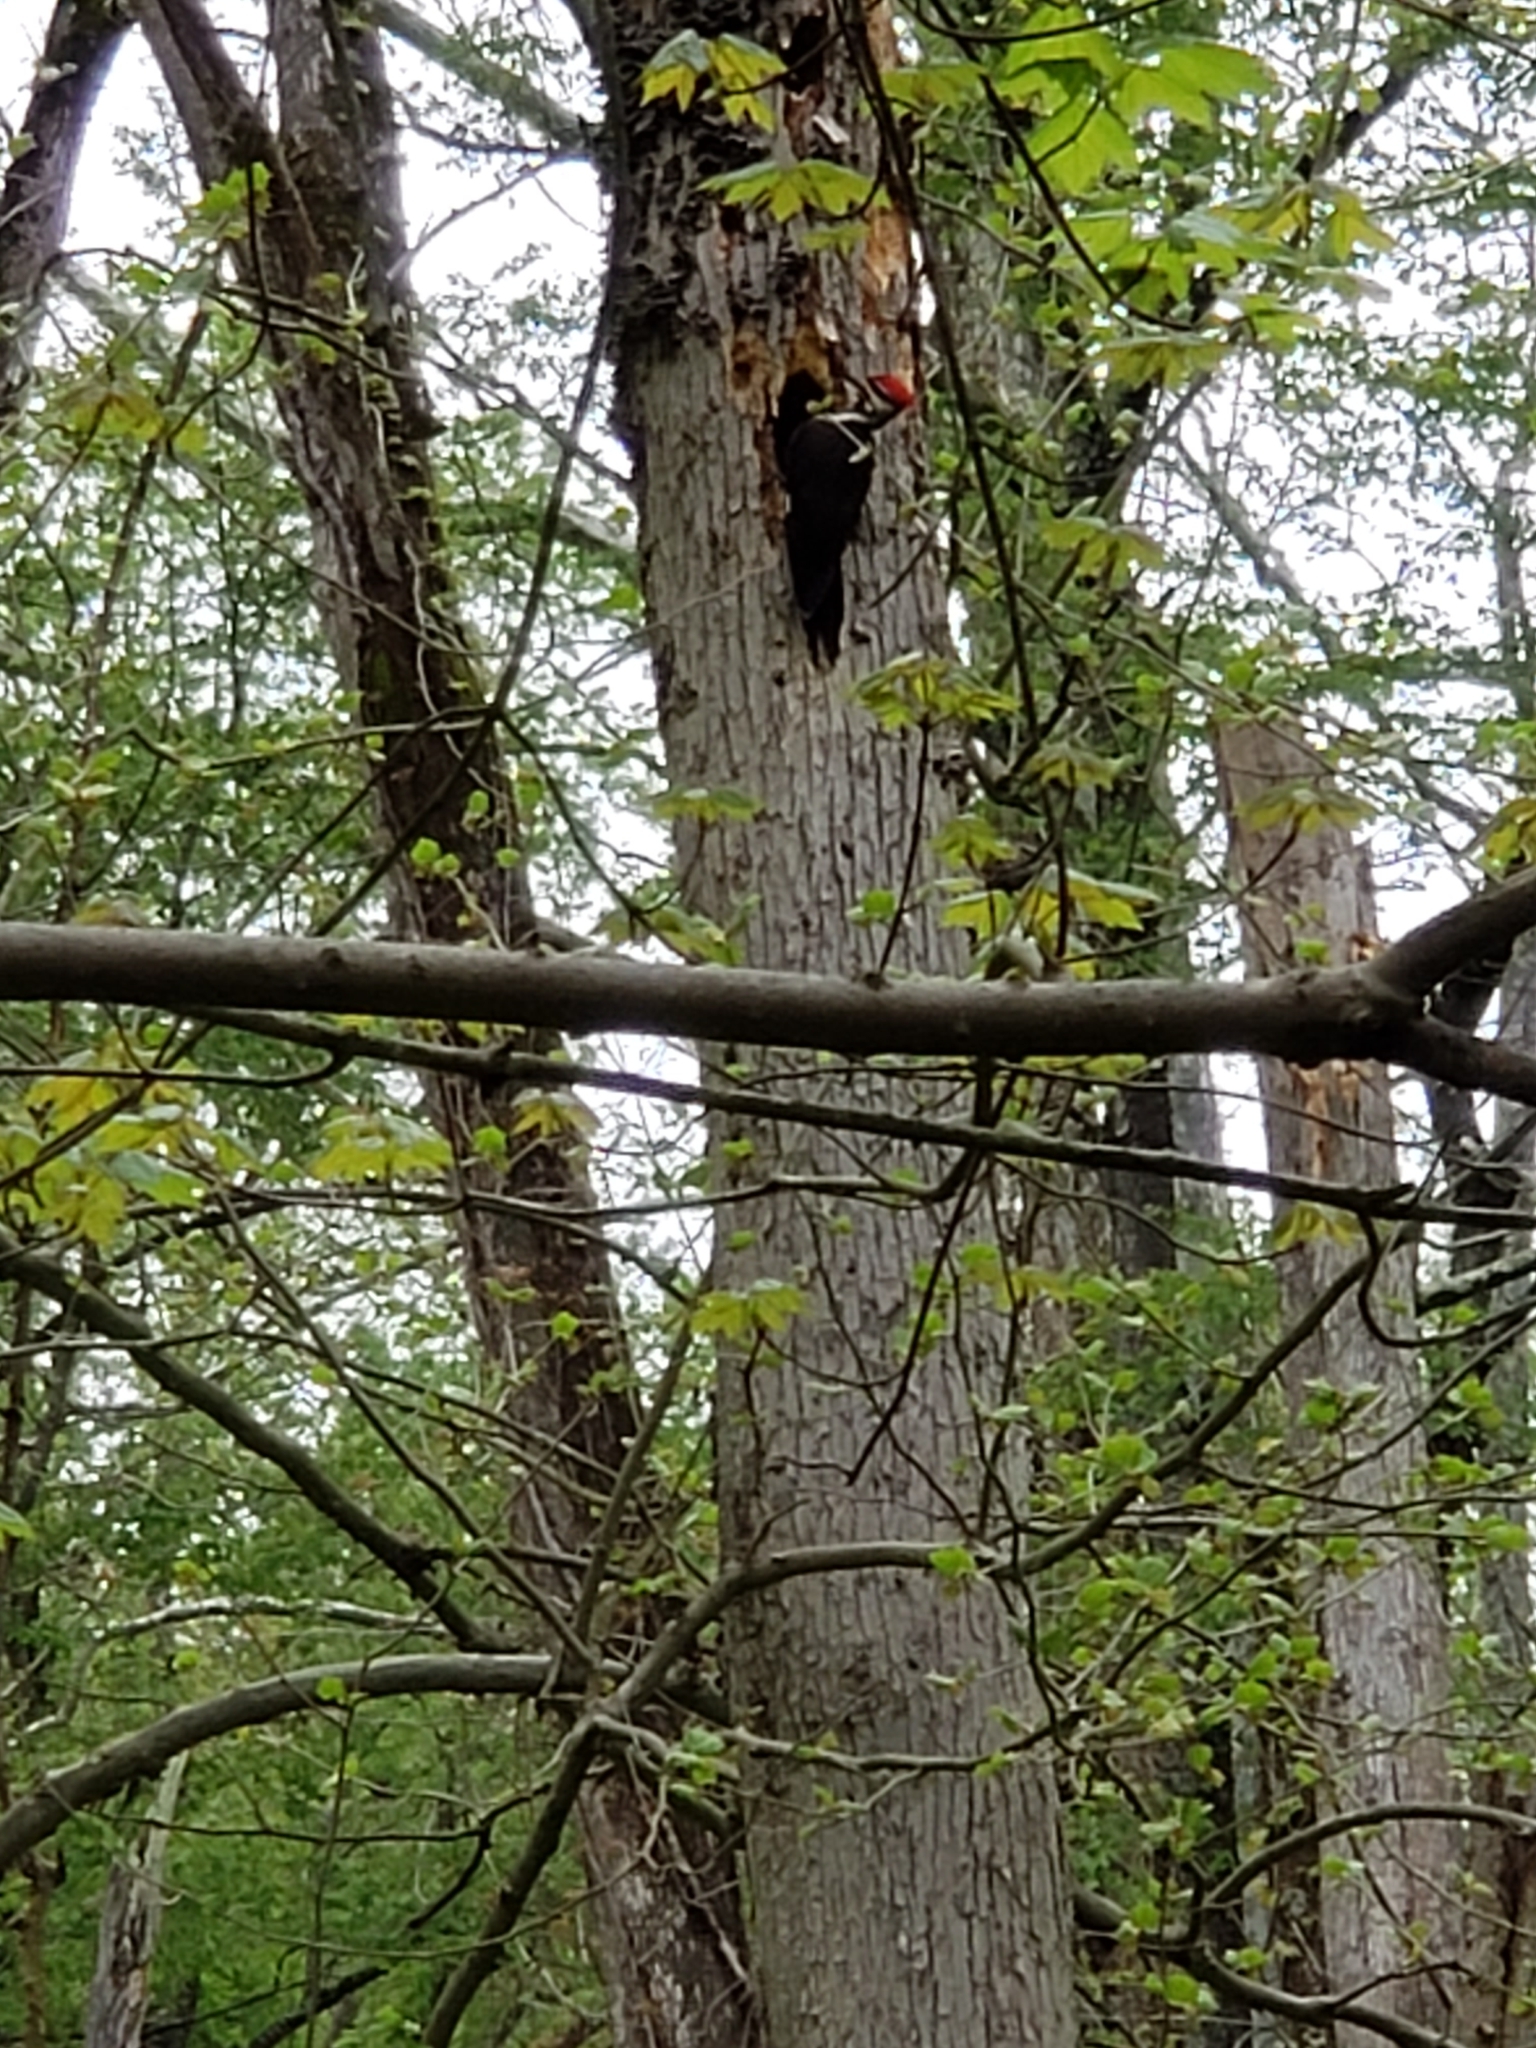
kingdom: Animalia
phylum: Chordata
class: Aves
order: Piciformes
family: Picidae
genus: Dryocopus
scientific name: Dryocopus pileatus
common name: Pileated woodpecker
